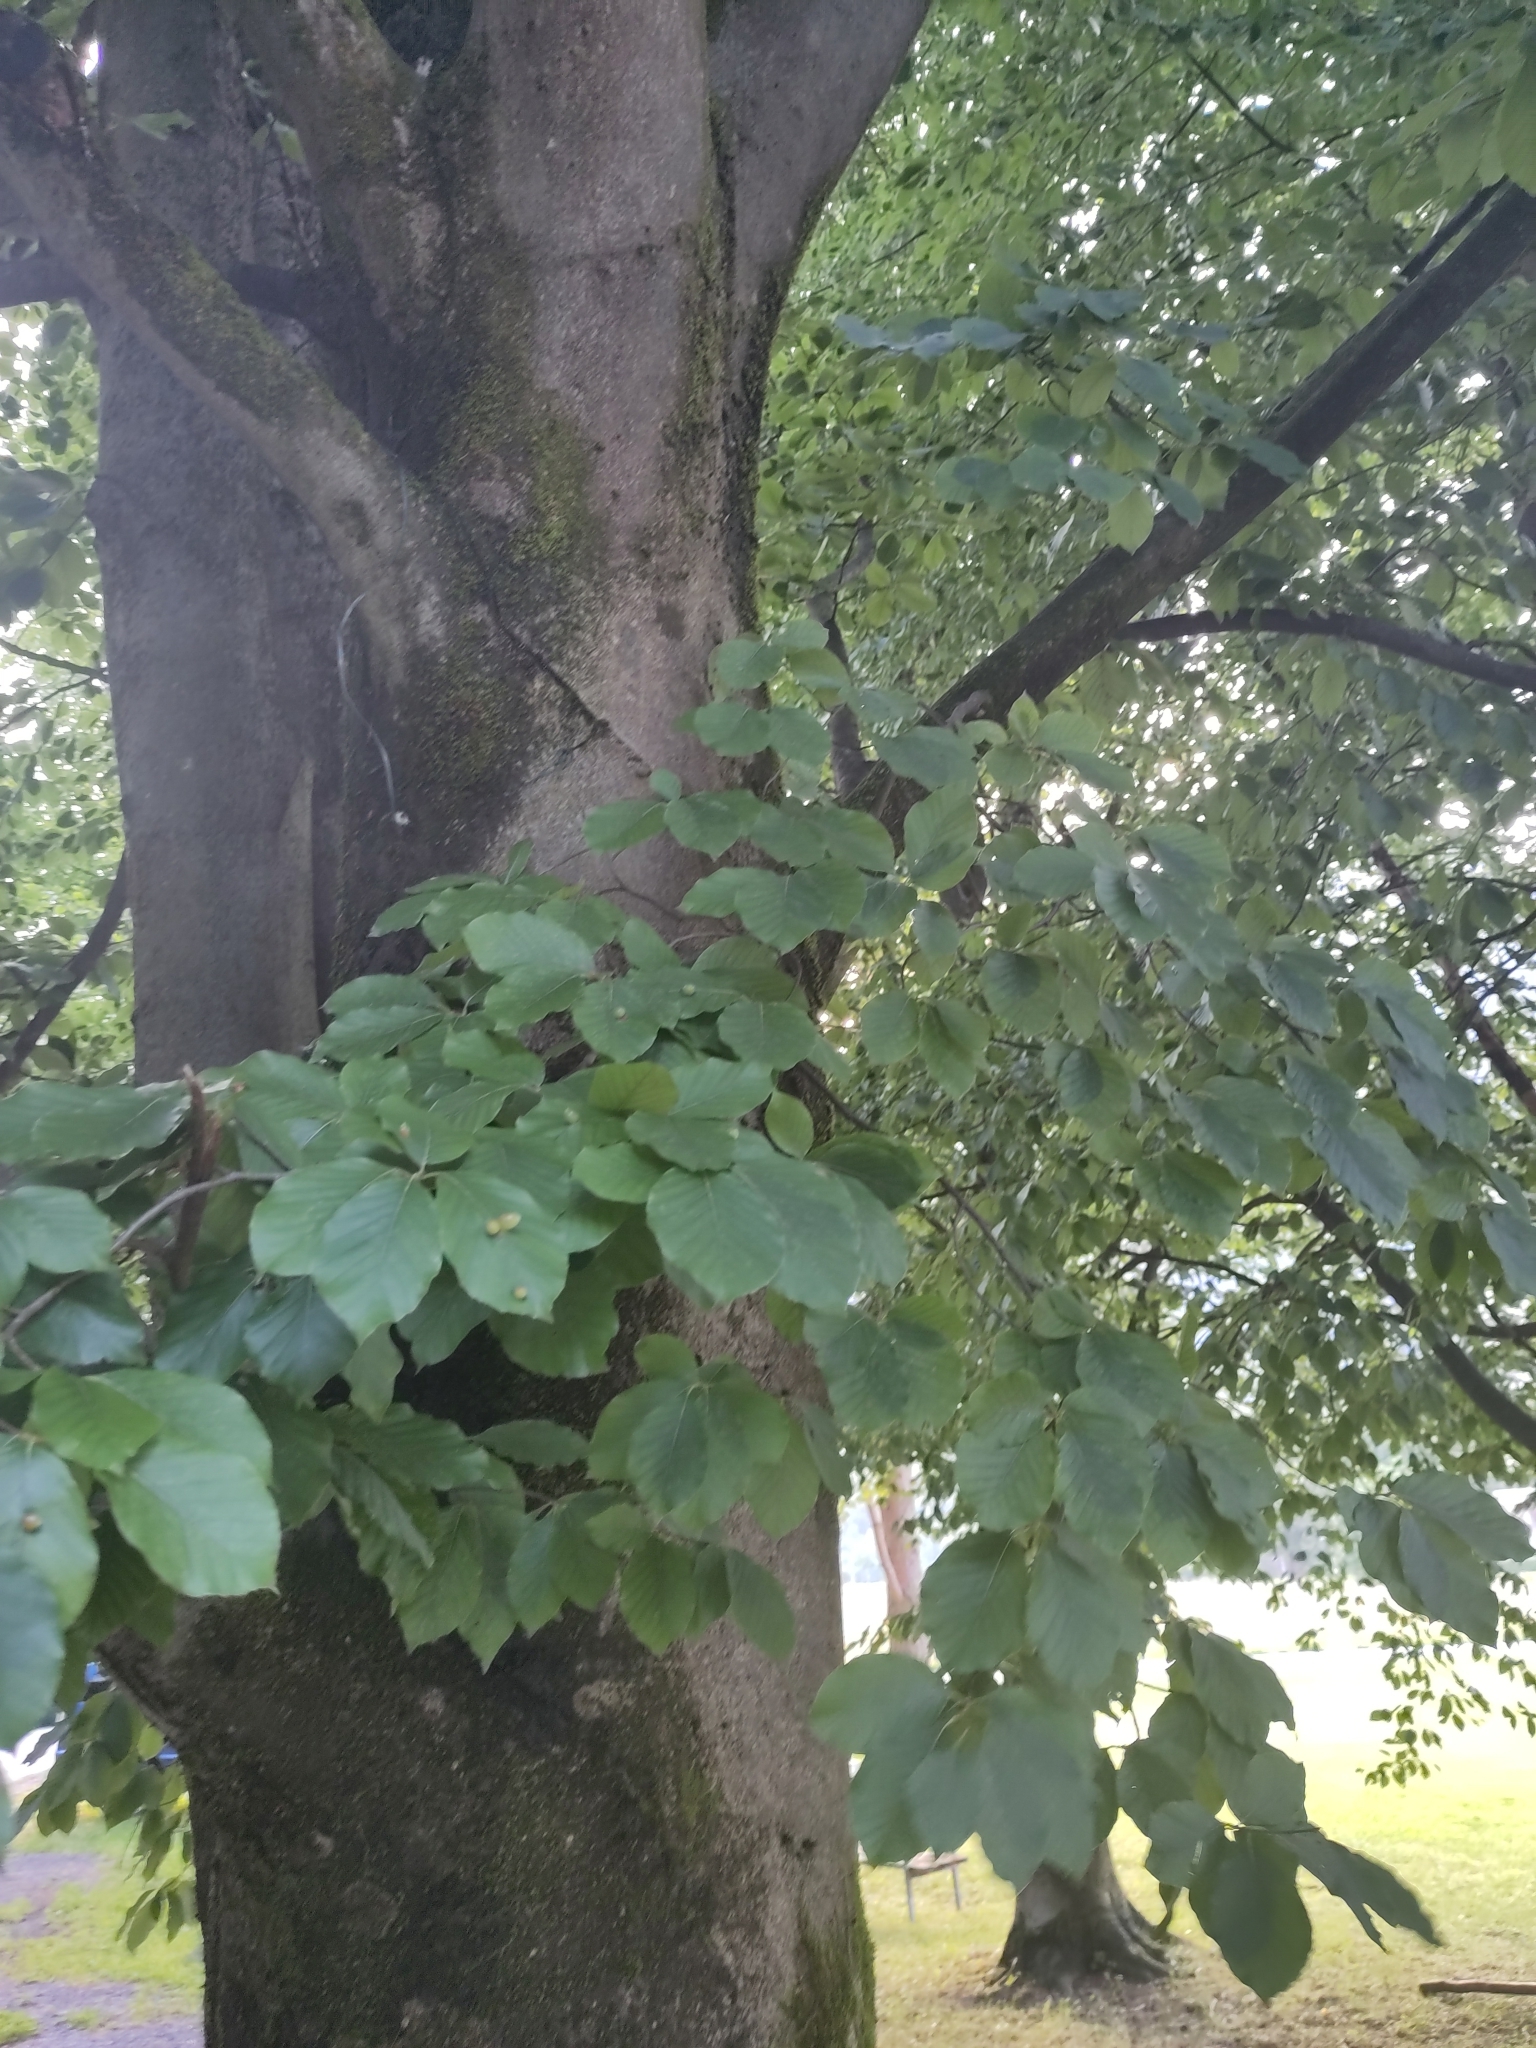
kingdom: Animalia
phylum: Arthropoda
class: Insecta
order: Diptera
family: Cecidomyiidae
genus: Mikiola
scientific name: Mikiola fagi
